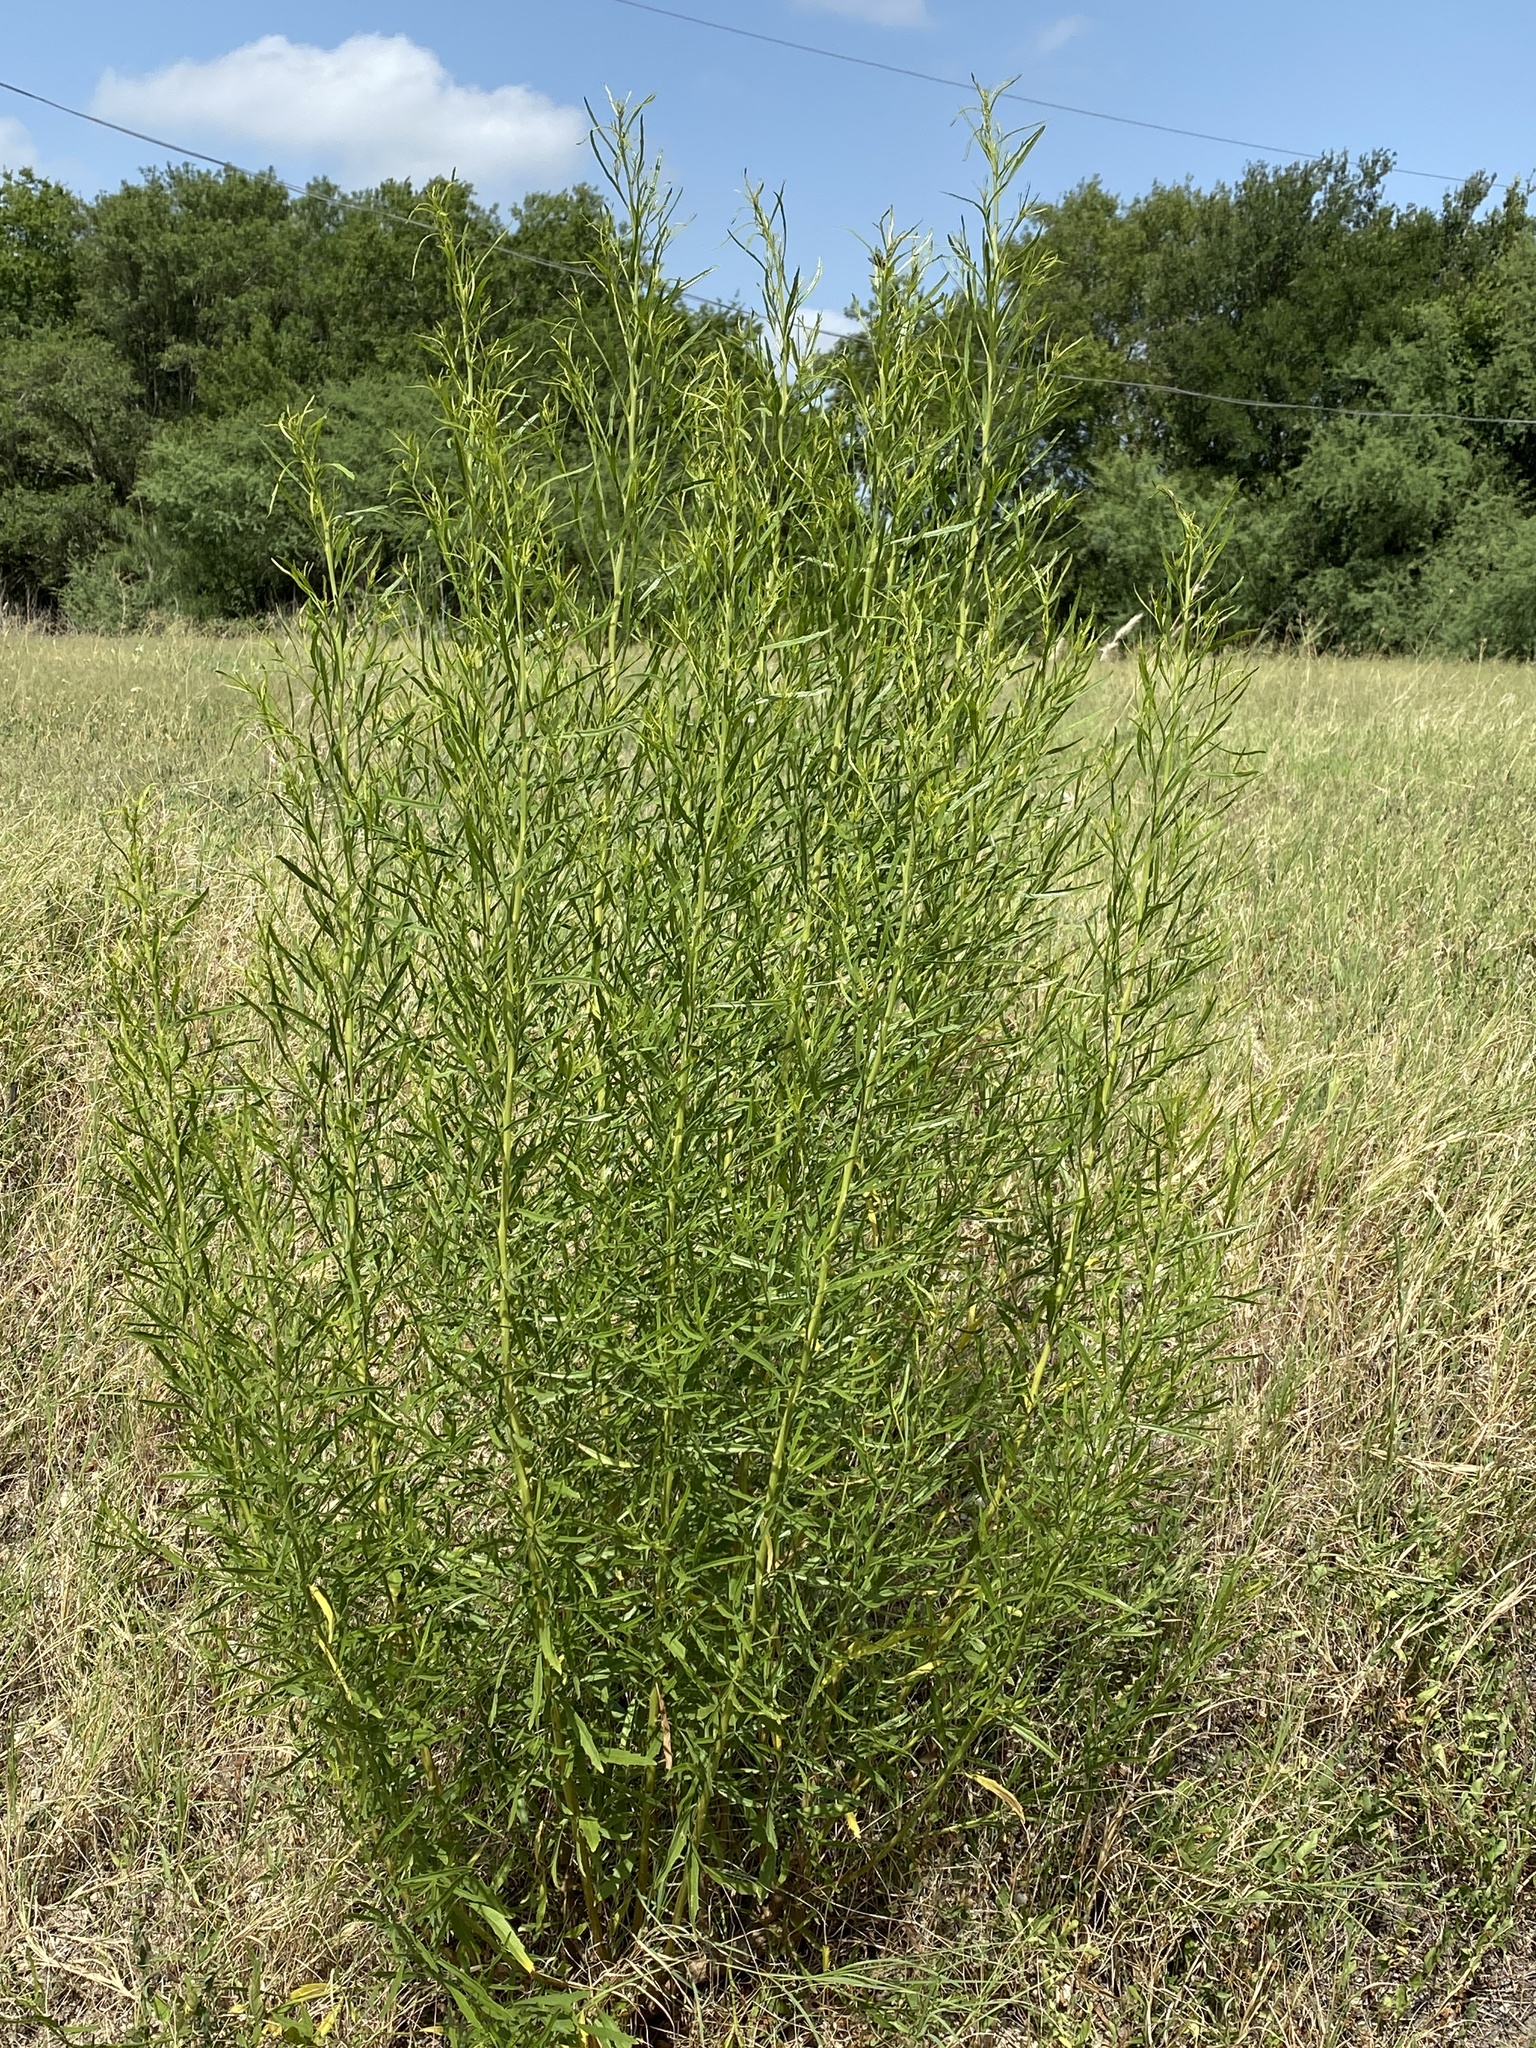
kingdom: Plantae
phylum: Tracheophyta
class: Magnoliopsida
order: Asterales
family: Asteraceae
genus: Baccharis
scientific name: Baccharis neglecta
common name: Roosevelt-weed
